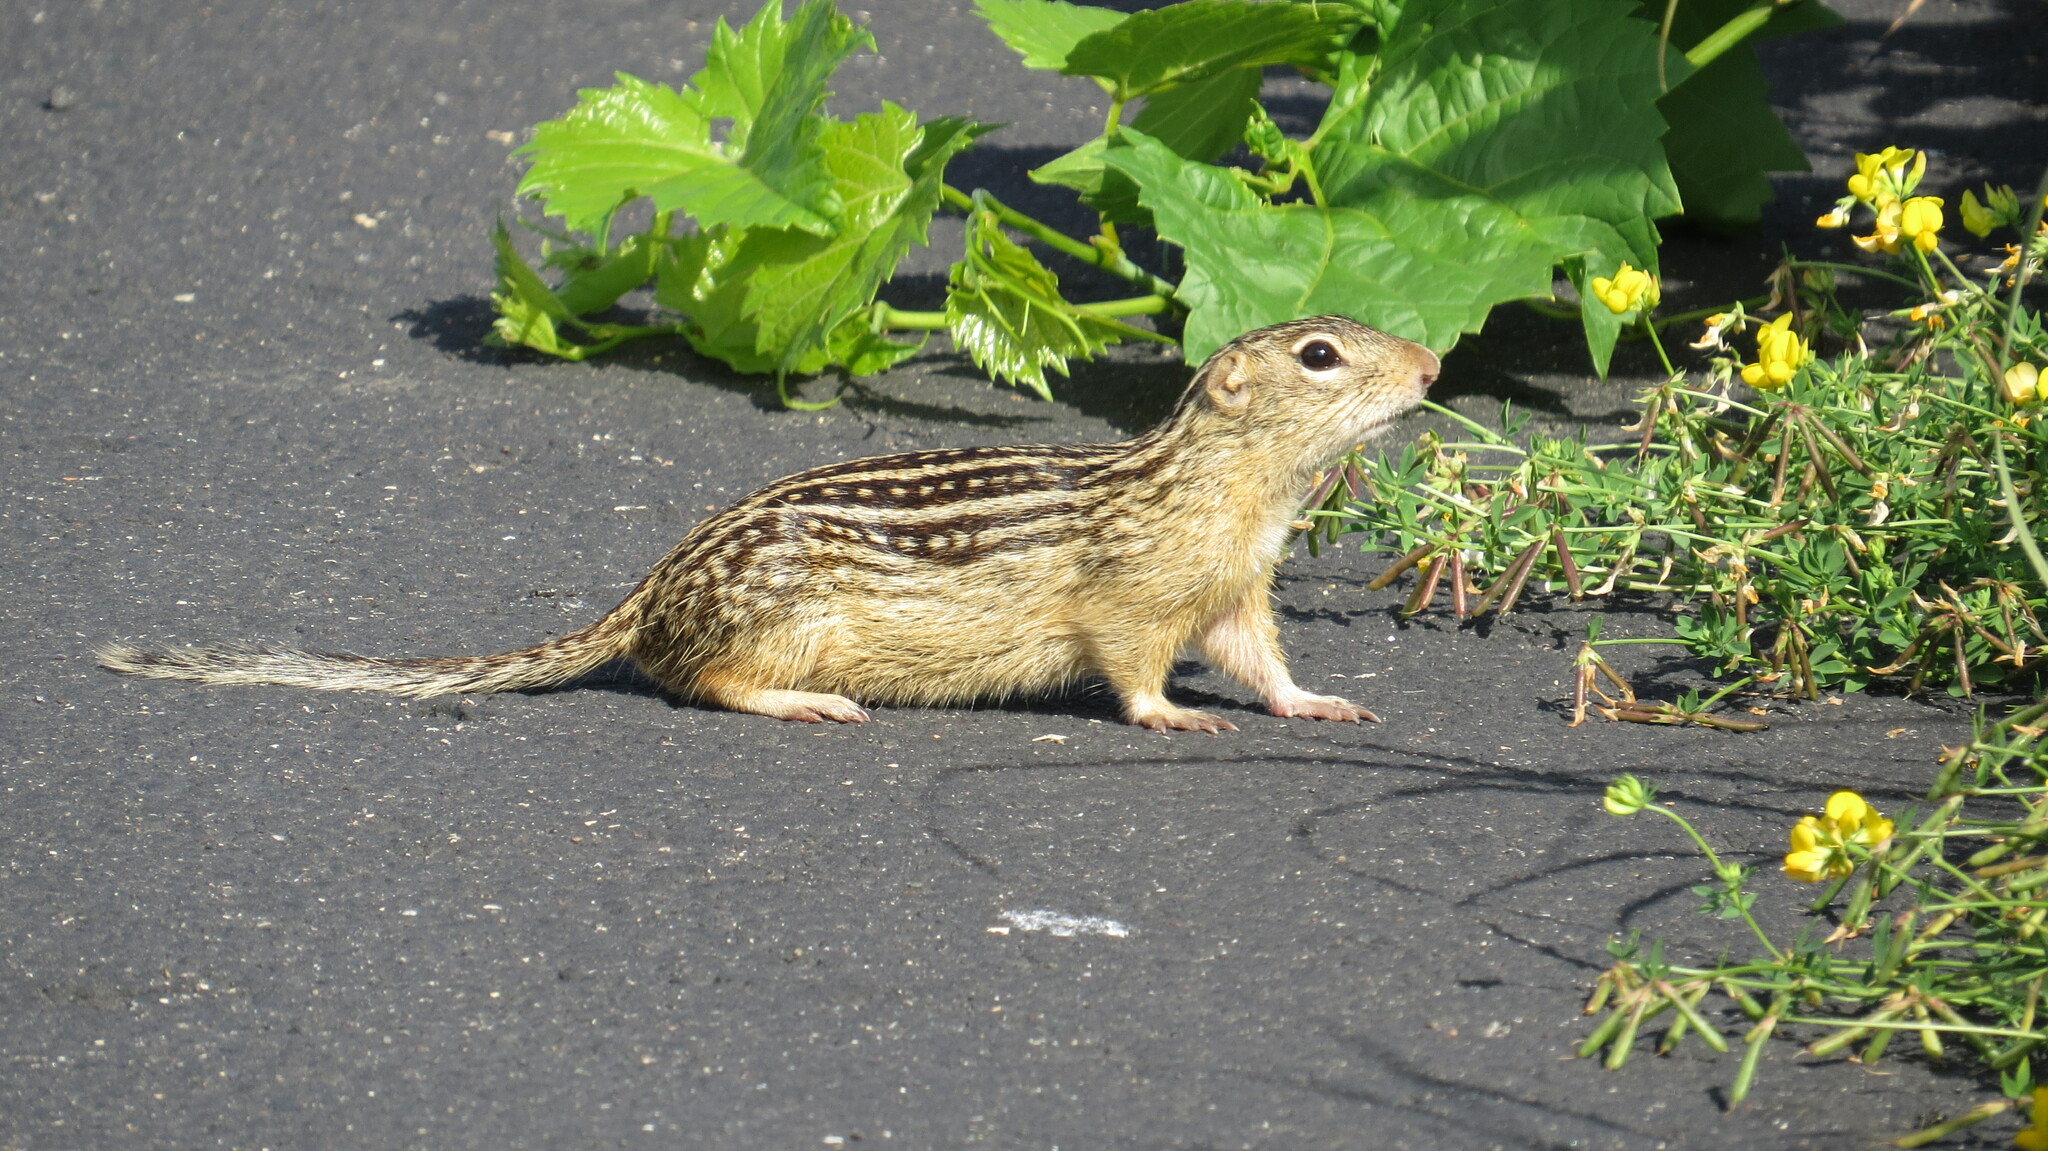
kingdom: Animalia
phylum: Chordata
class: Mammalia
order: Rodentia
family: Sciuridae
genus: Ictidomys
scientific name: Ictidomys tridecemlineatus
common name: Thirteen-lined ground squirrel
